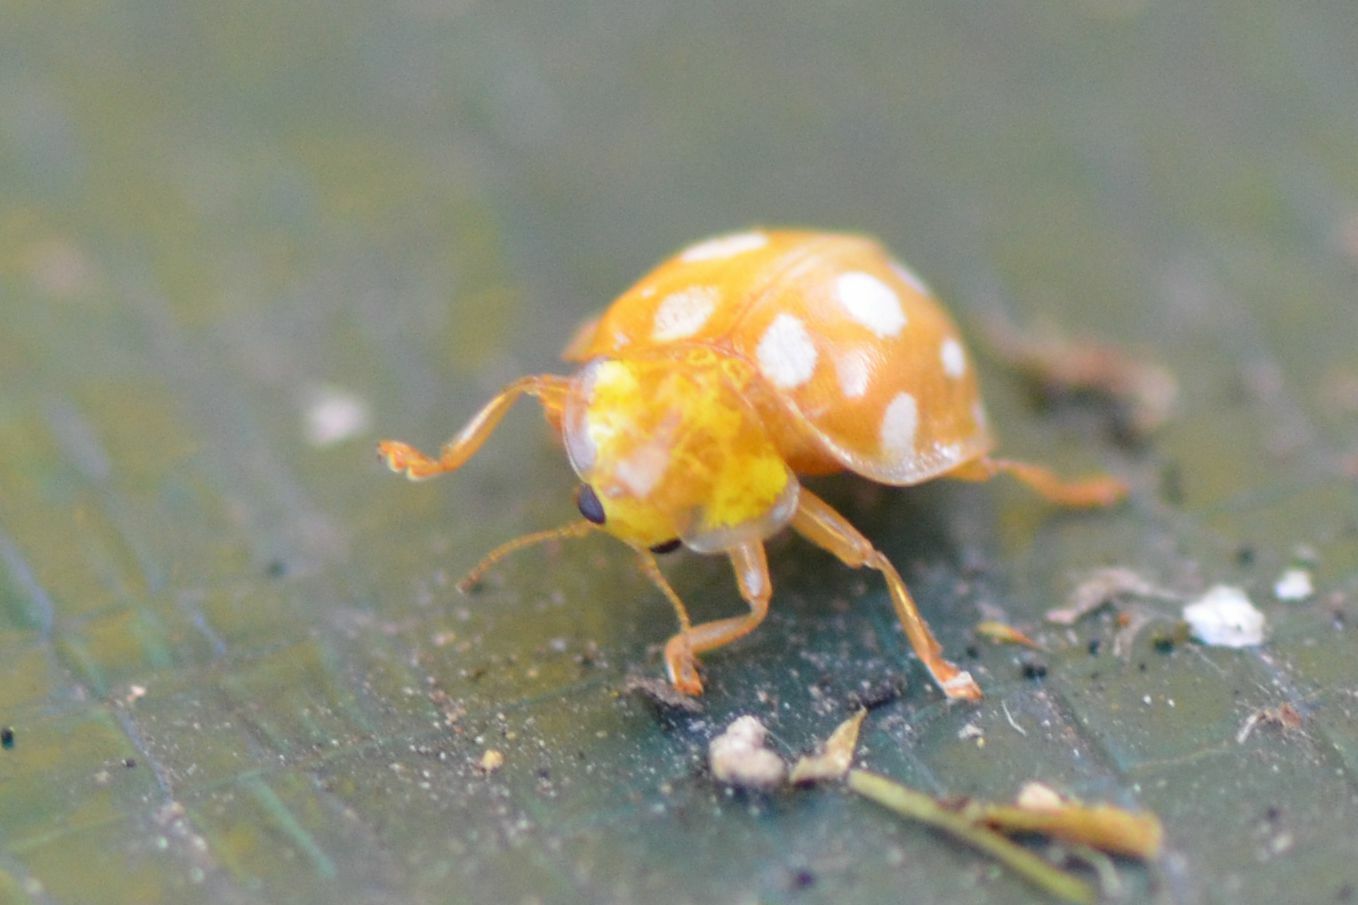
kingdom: Animalia
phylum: Arthropoda
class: Insecta
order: Coleoptera
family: Coccinellidae
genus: Halyzia
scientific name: Halyzia sedecimguttata
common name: Orange ladybird
